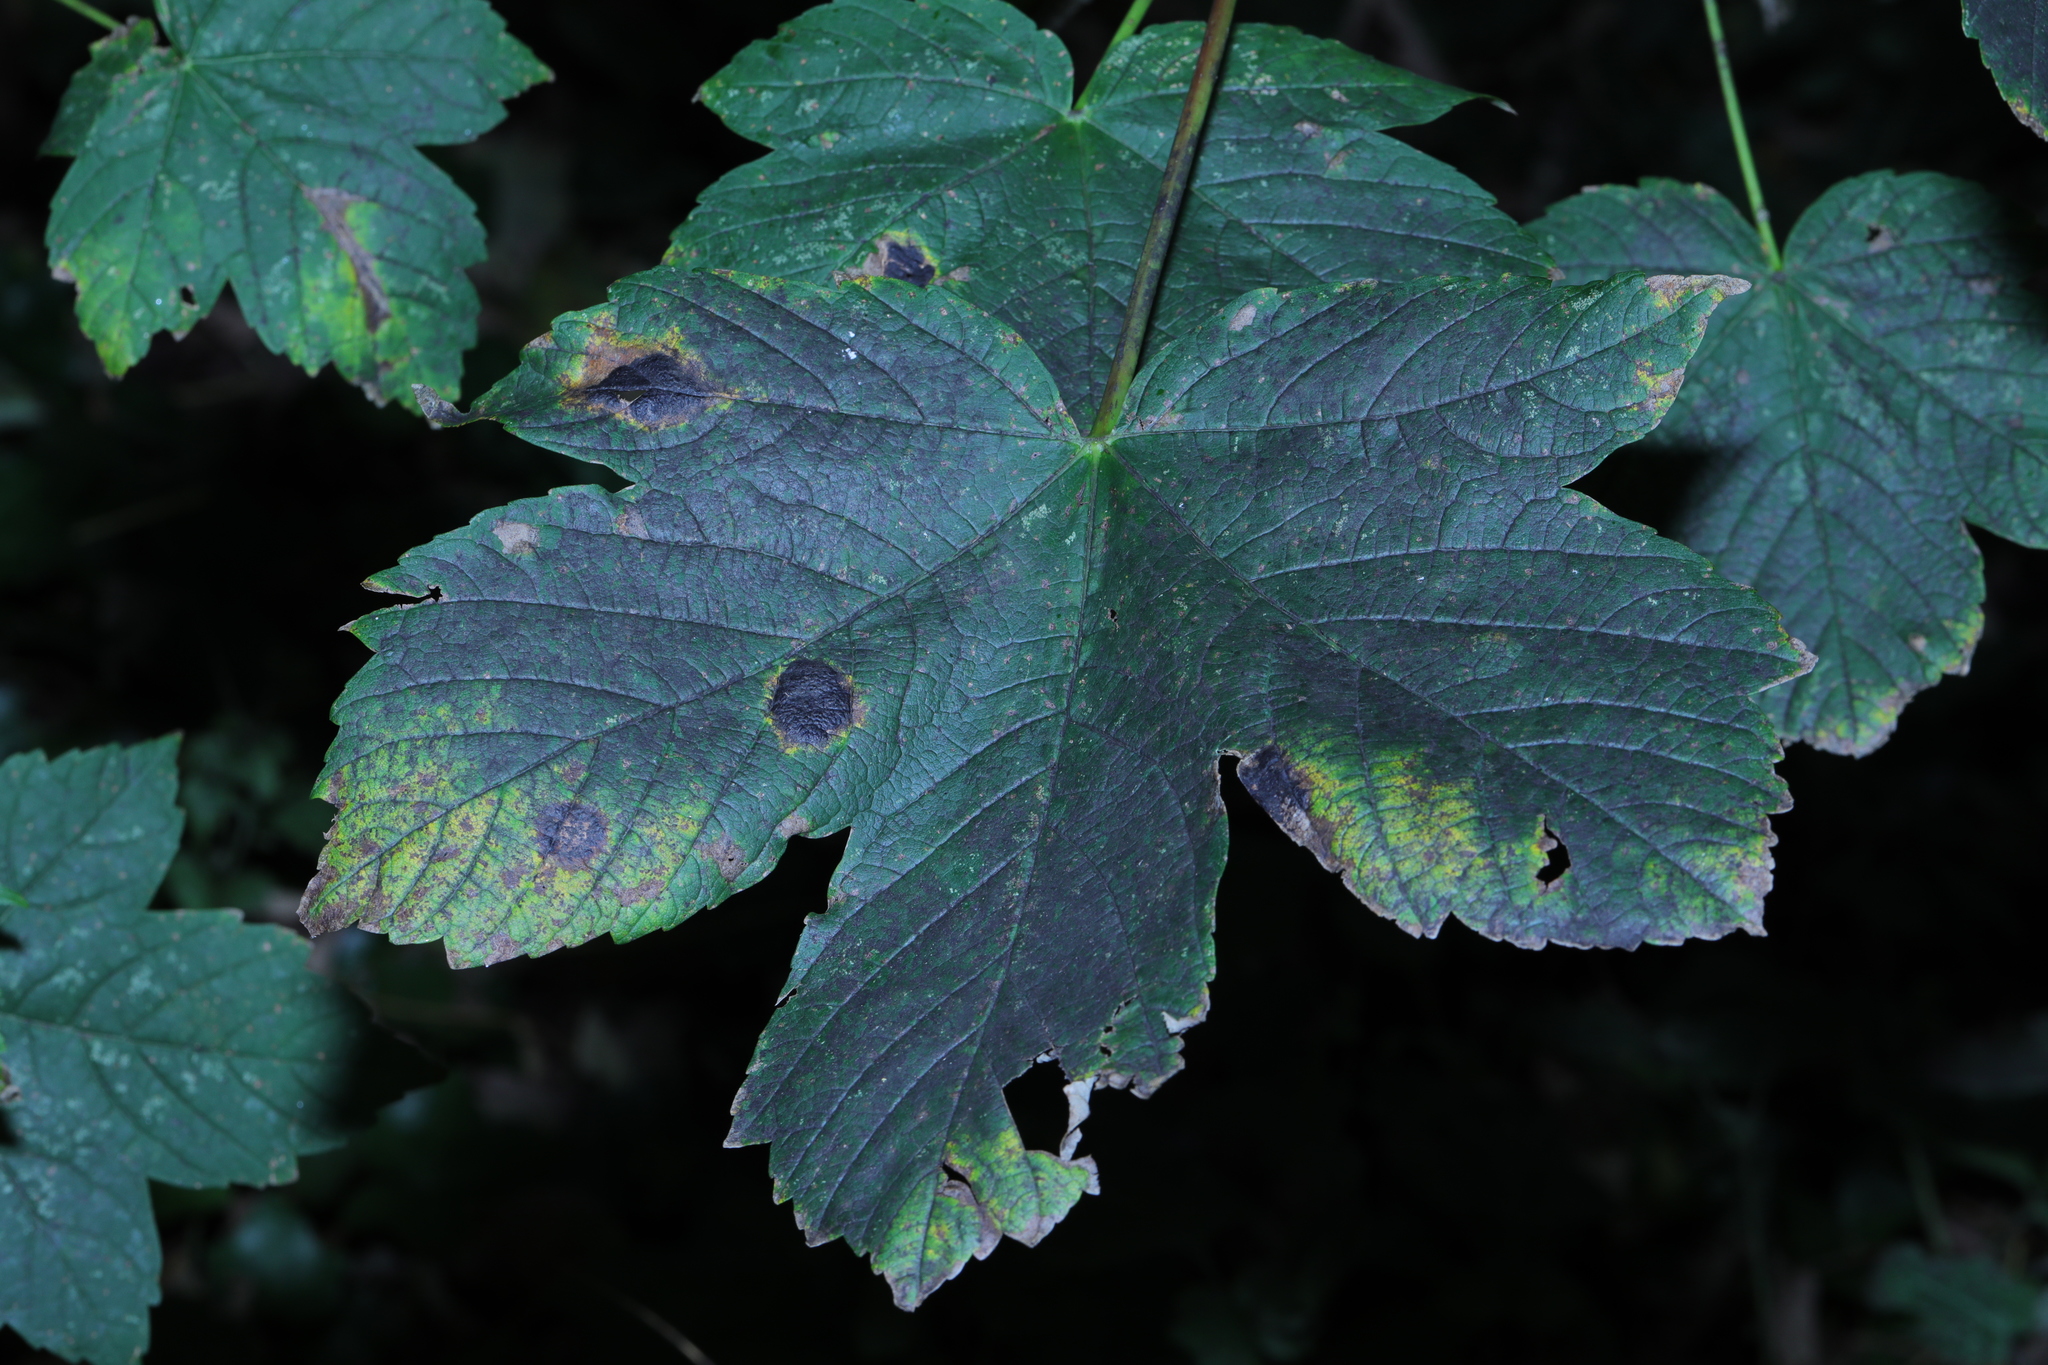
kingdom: Plantae
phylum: Tracheophyta
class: Magnoliopsida
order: Sapindales
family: Sapindaceae
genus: Acer
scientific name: Acer pseudoplatanus
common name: Sycamore
